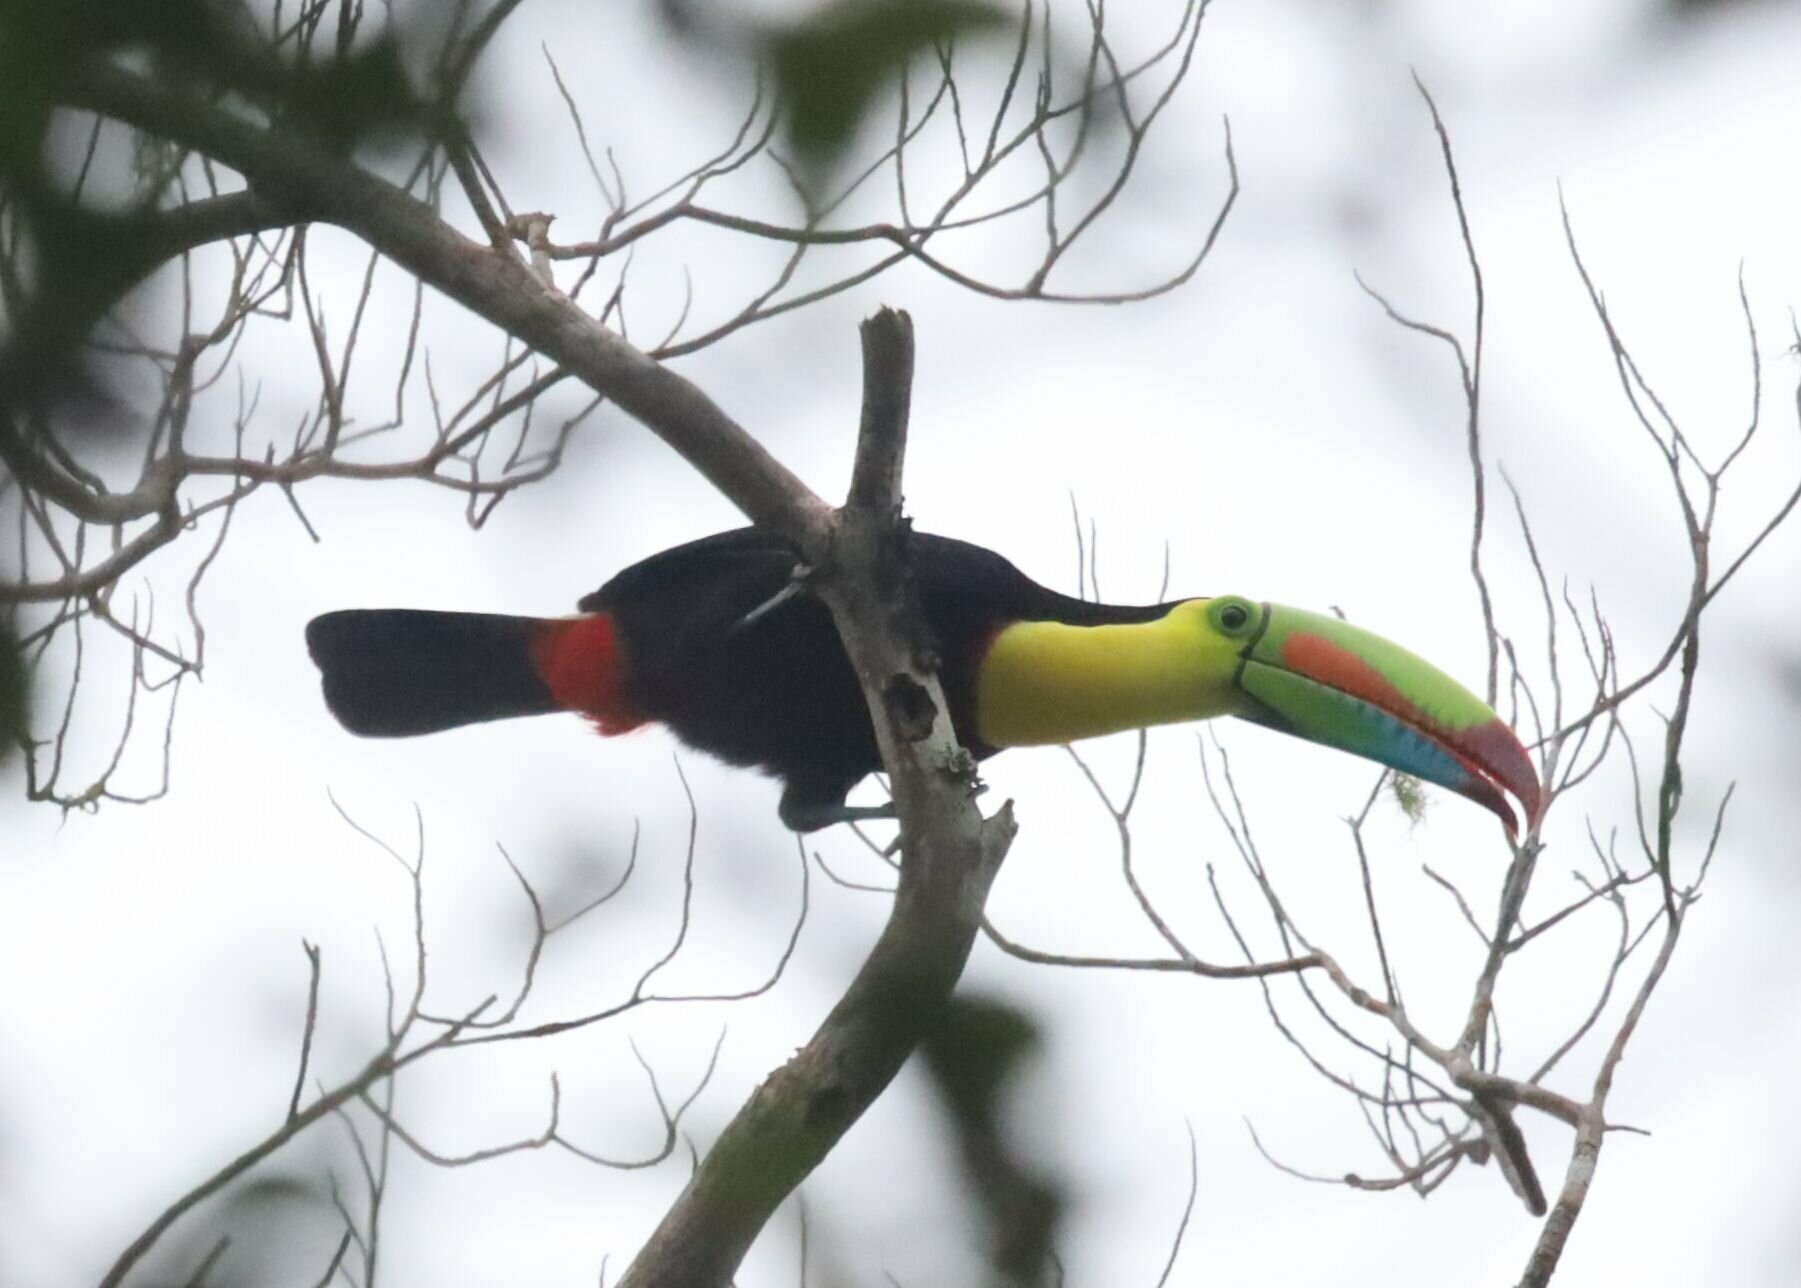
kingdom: Animalia
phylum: Chordata
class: Aves
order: Piciformes
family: Ramphastidae
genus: Ramphastos
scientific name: Ramphastos sulfuratus
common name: Keel-billed toucan
